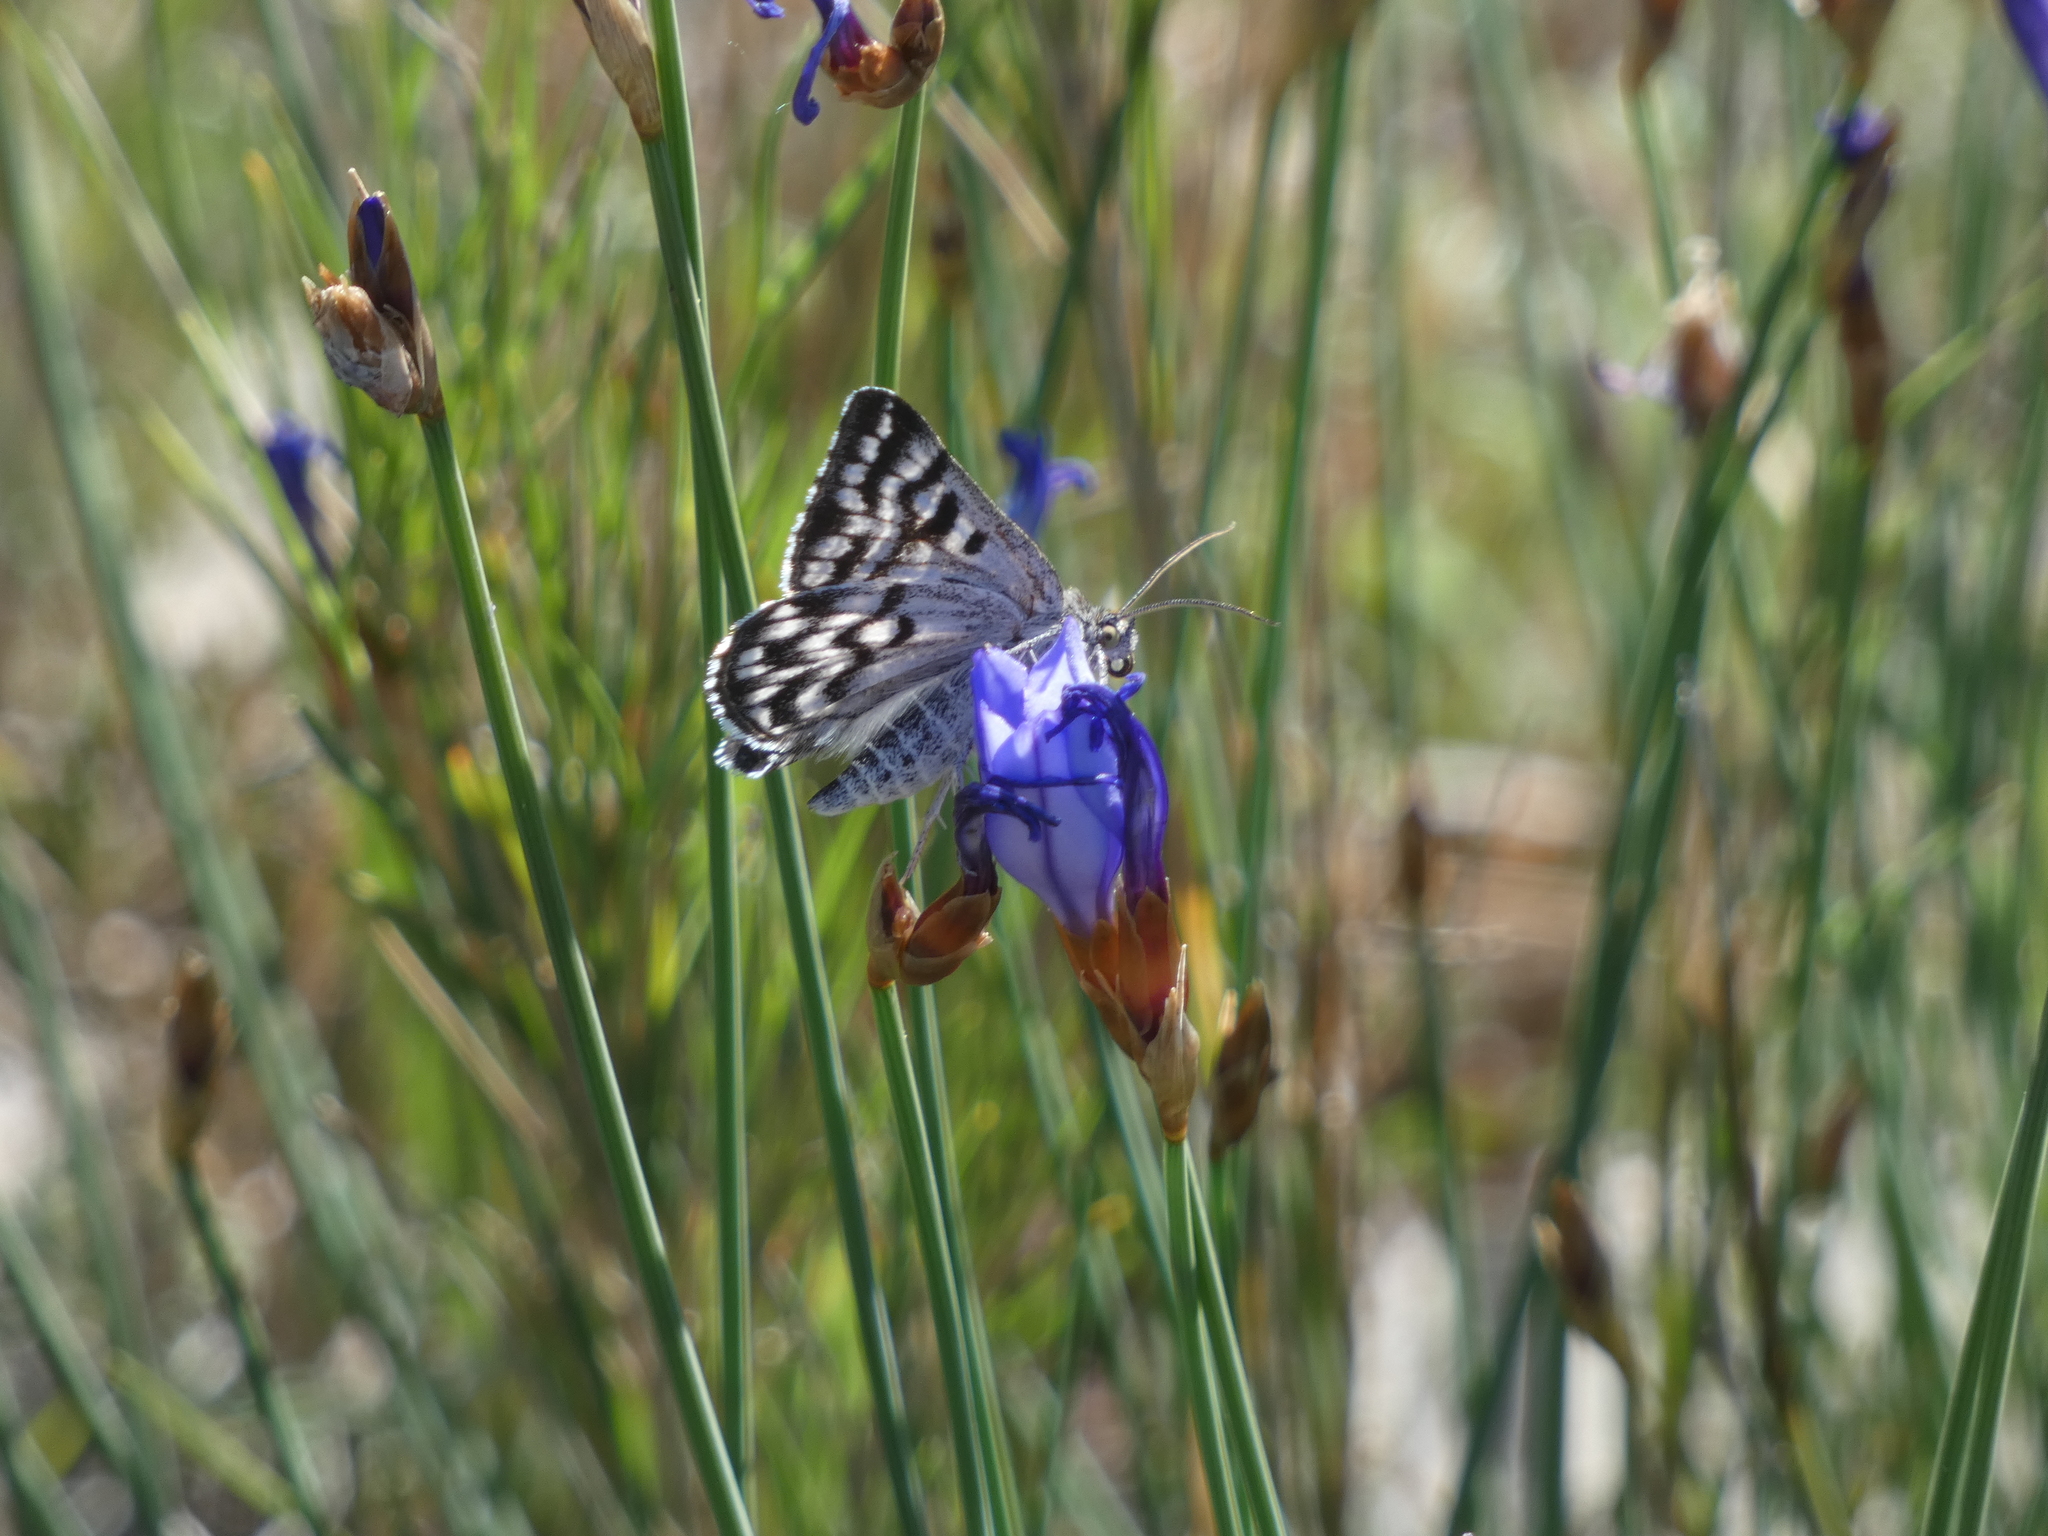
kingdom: Animalia
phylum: Arthropoda
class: Insecta
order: Lepidoptera
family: Erebidae
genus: Callistege
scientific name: Callistege mi
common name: Mother shipton
